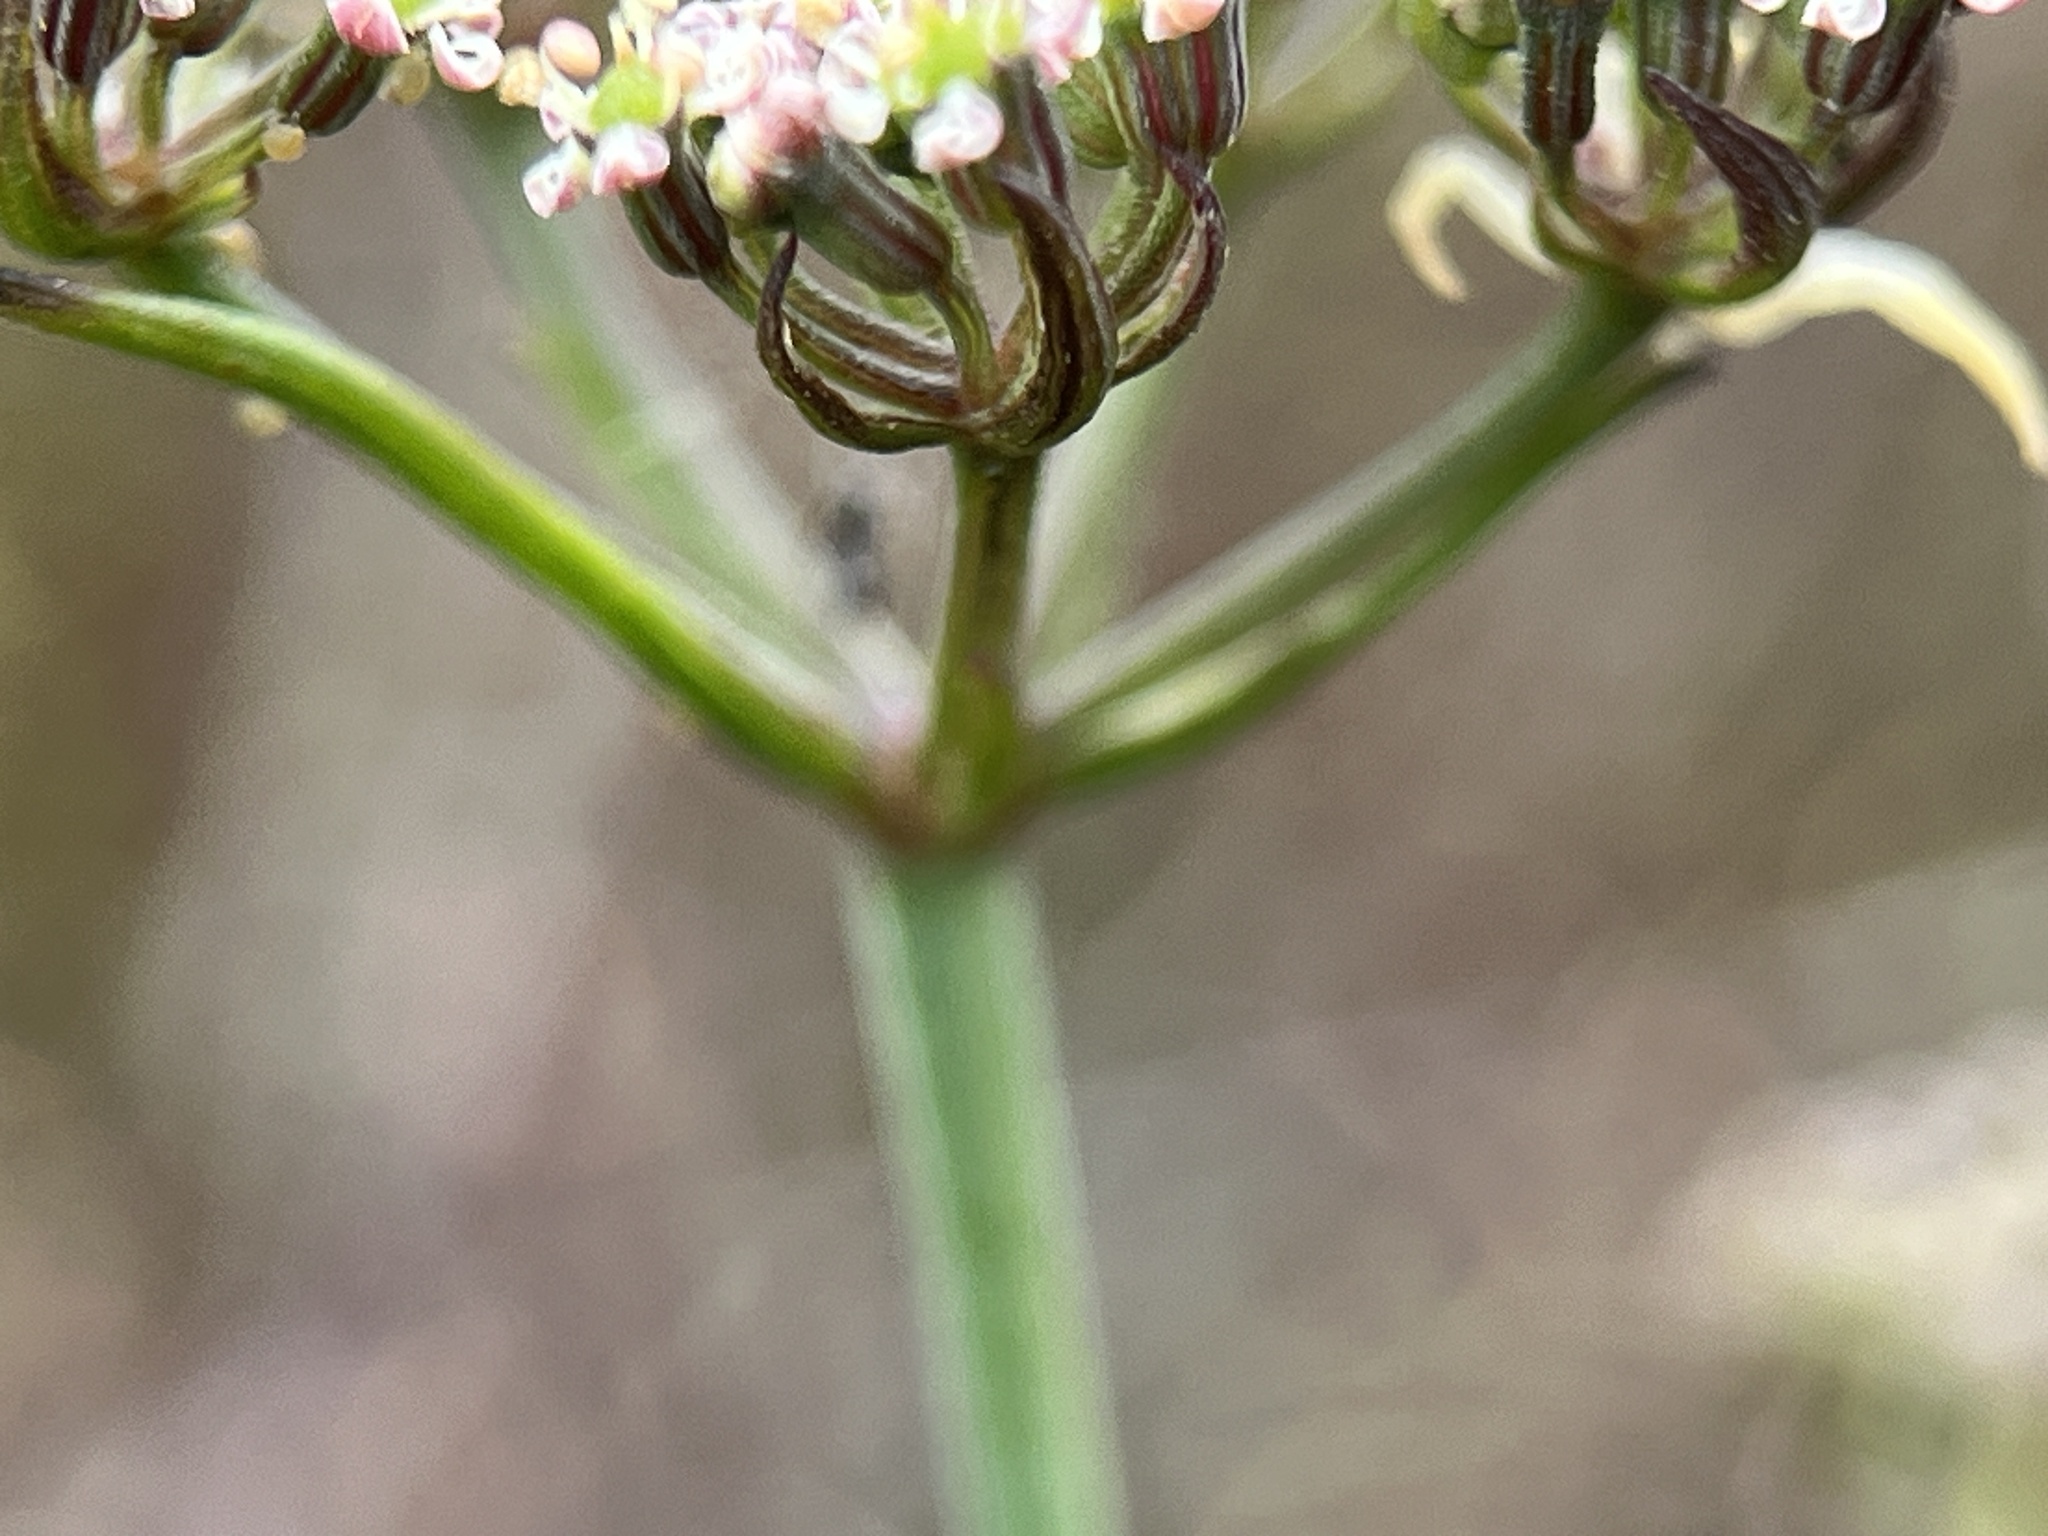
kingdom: Plantae
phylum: Tracheophyta
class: Magnoliopsida
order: Apiales
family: Apiaceae
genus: Itasina
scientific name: Itasina filifolia
